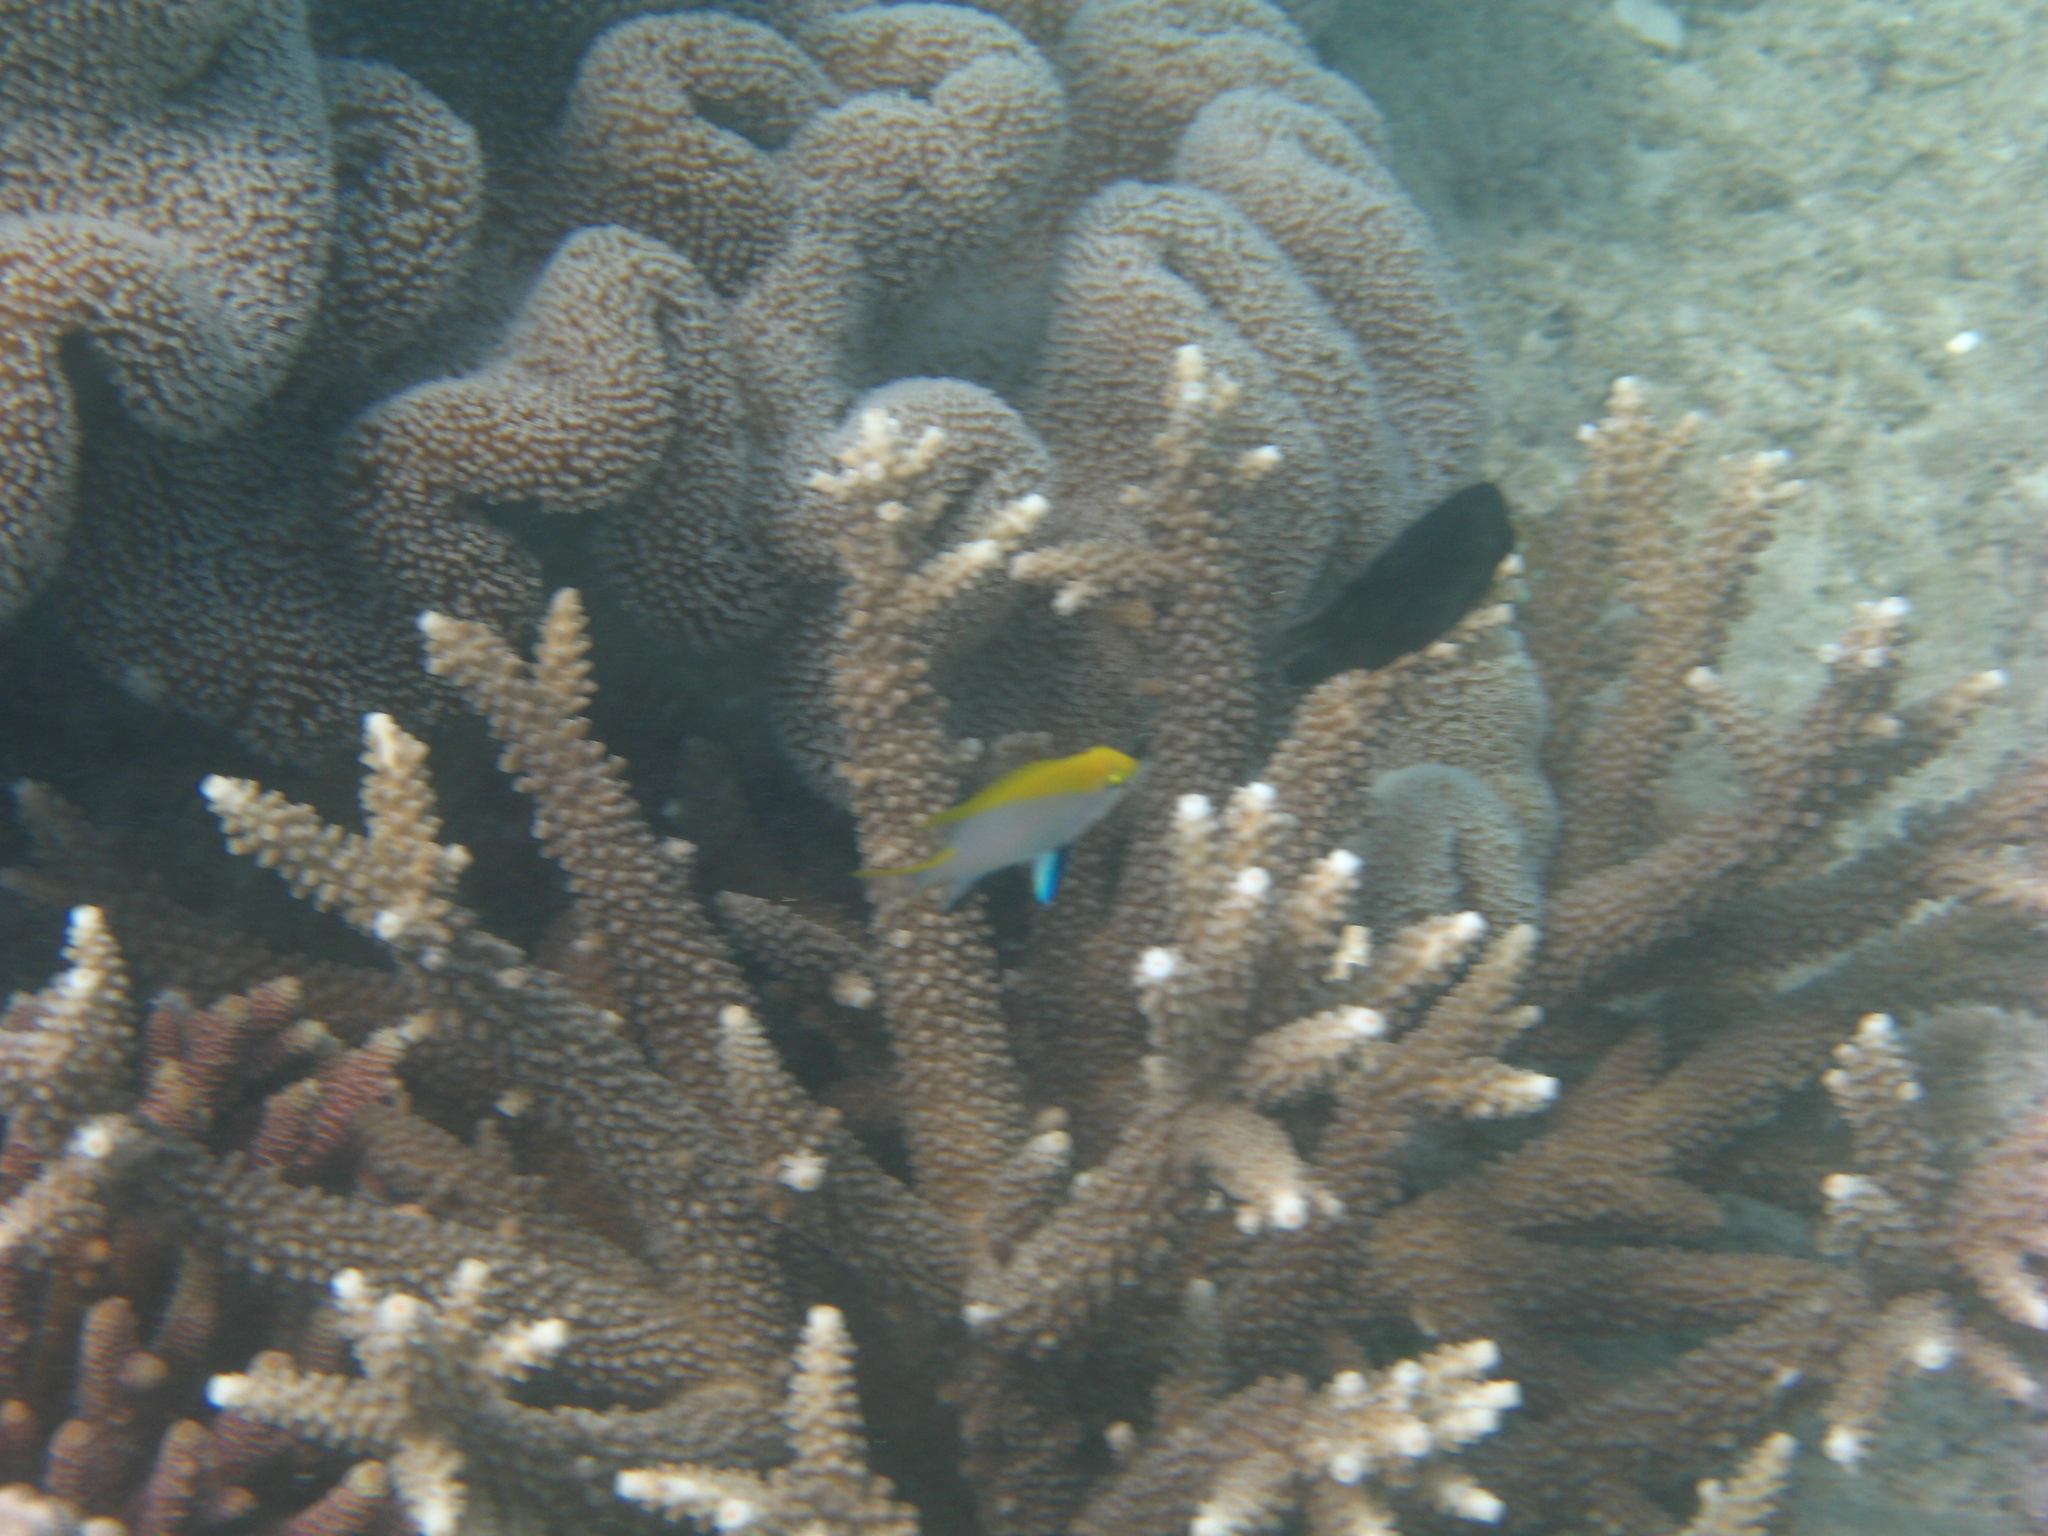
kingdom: Animalia
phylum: Chordata
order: Perciformes
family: Pomacentridae
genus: Neoglyphidodon
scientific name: Neoglyphidodon melas
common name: Black damsel
